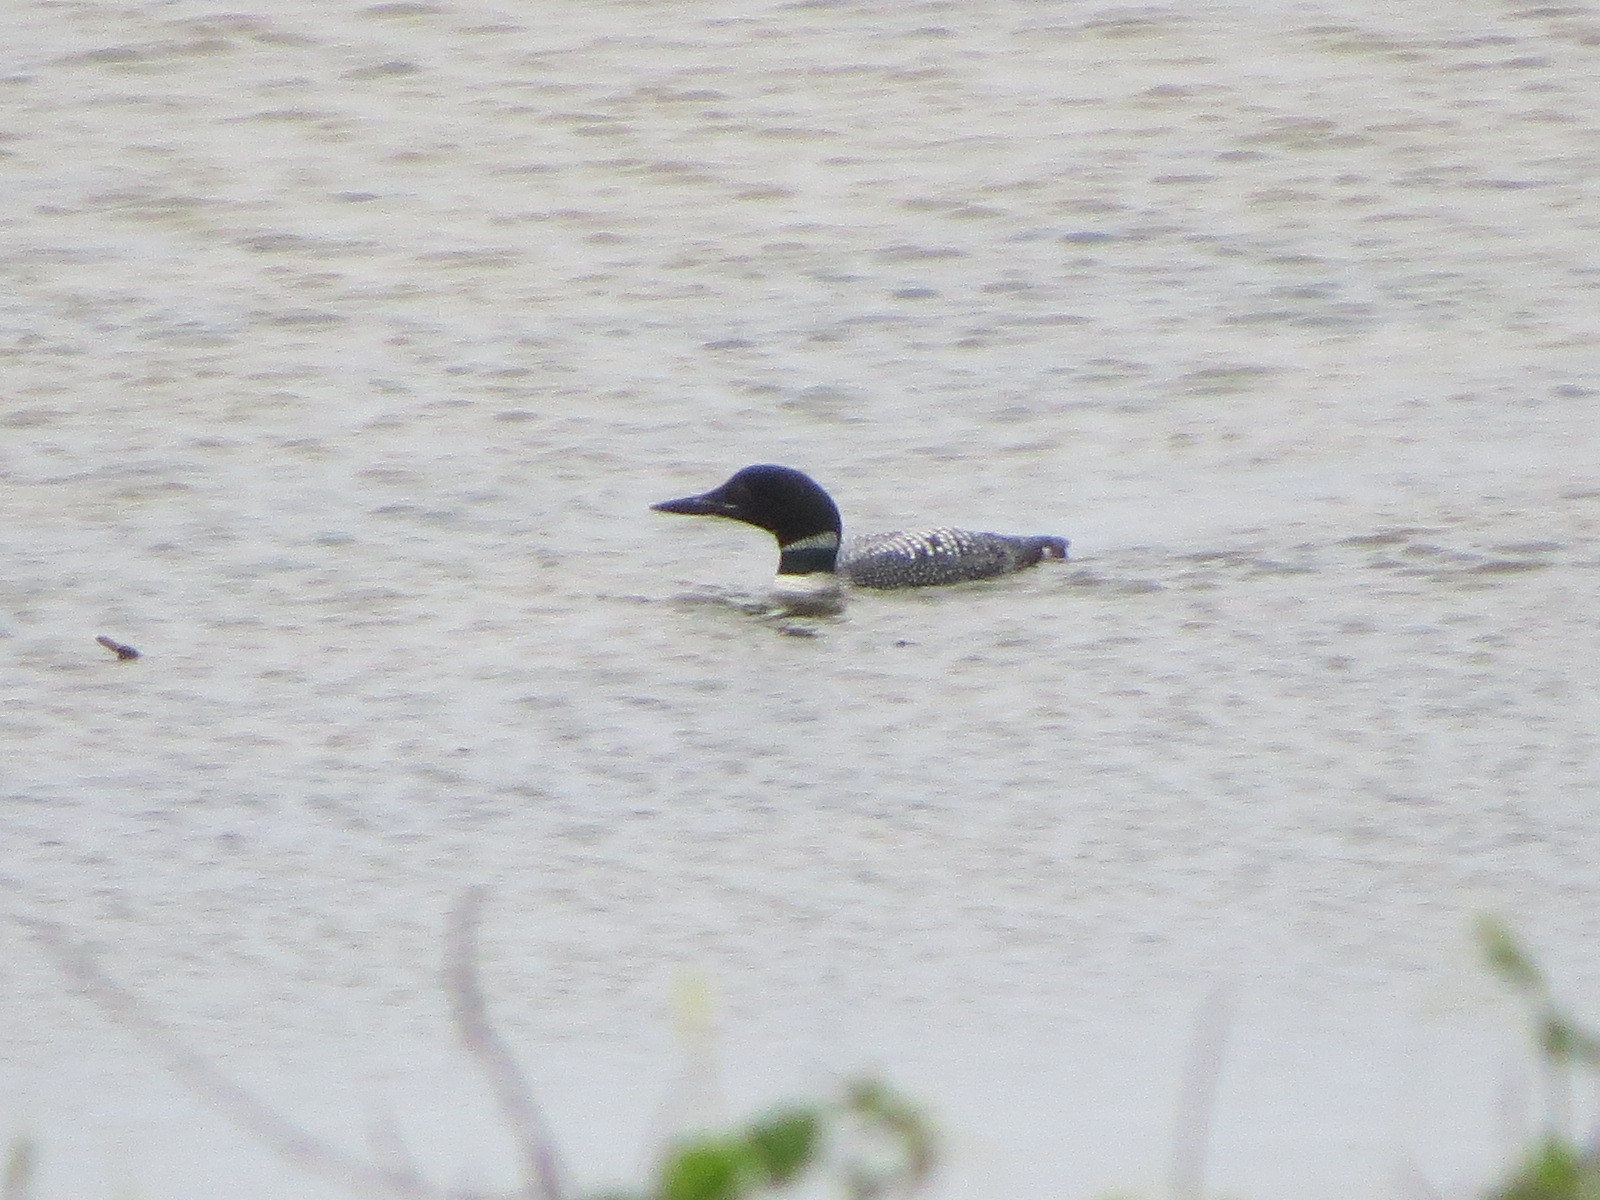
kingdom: Animalia
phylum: Chordata
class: Aves
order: Gaviiformes
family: Gaviidae
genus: Gavia
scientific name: Gavia immer
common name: Common loon
